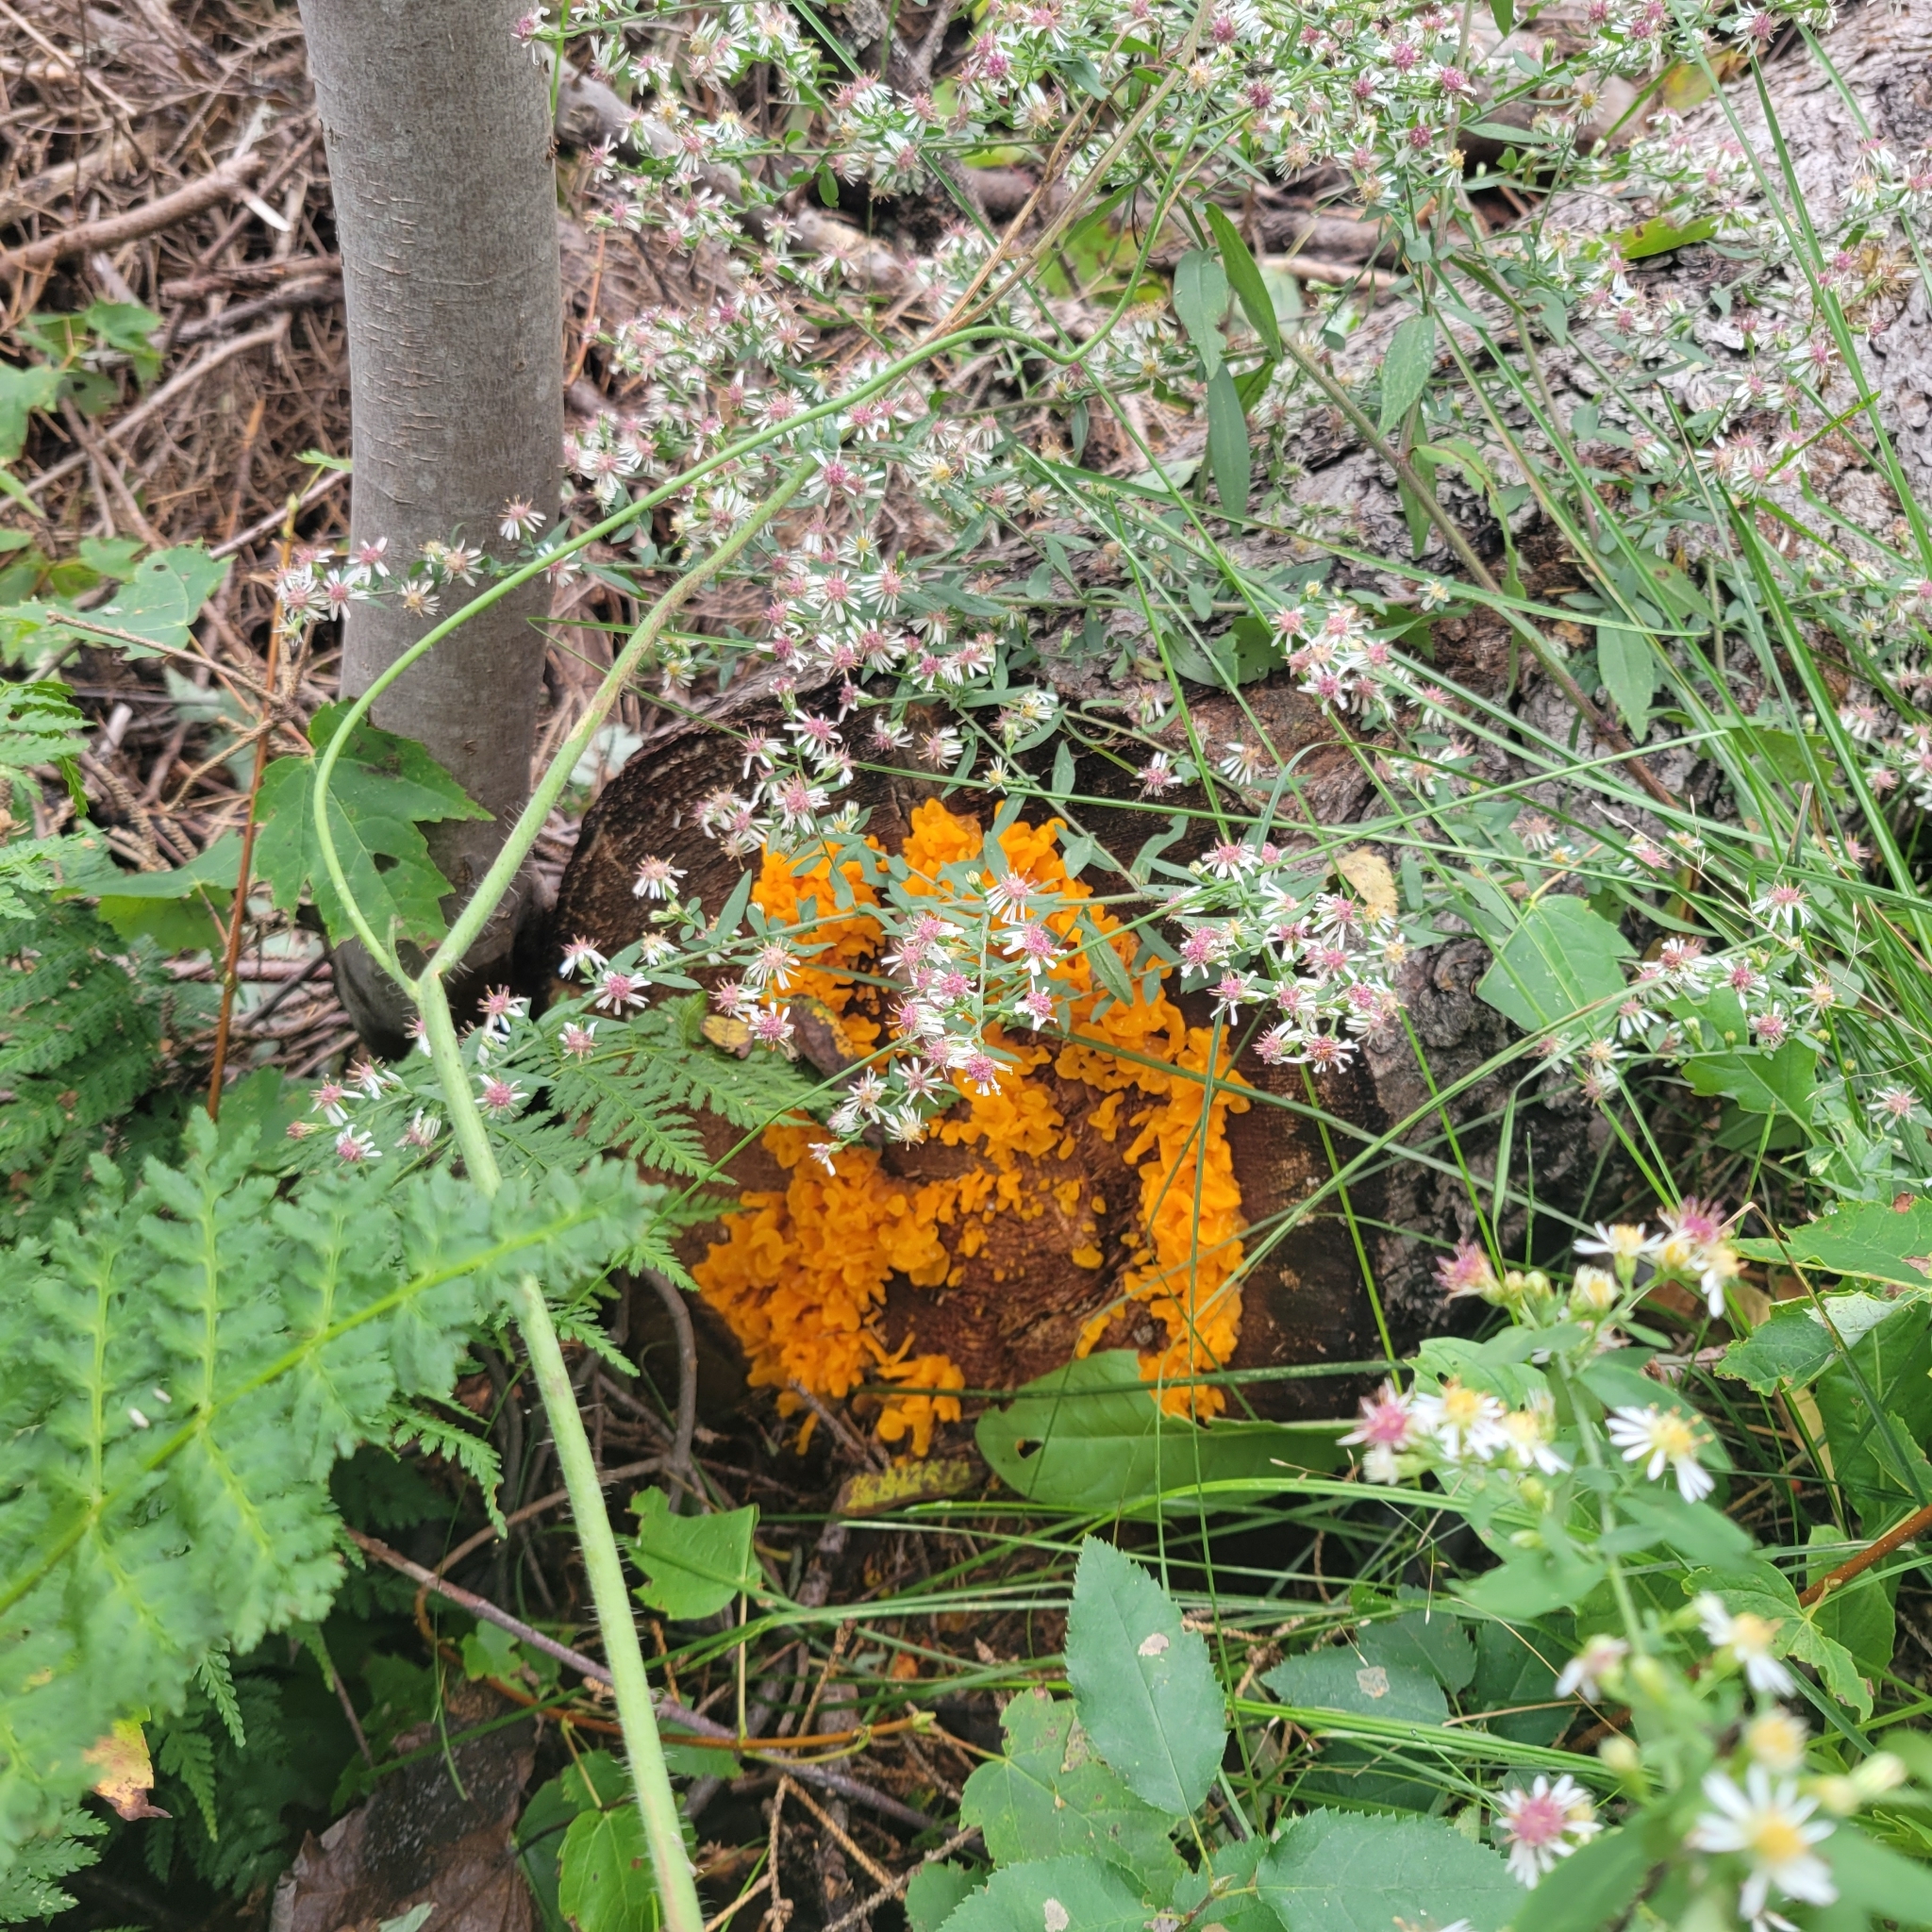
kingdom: Fungi
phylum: Basidiomycota
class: Dacrymycetes
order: Dacrymycetales
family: Dacrymycetaceae
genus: Dacrymyces
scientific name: Dacrymyces chrysospermus
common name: Orange jelly spot
